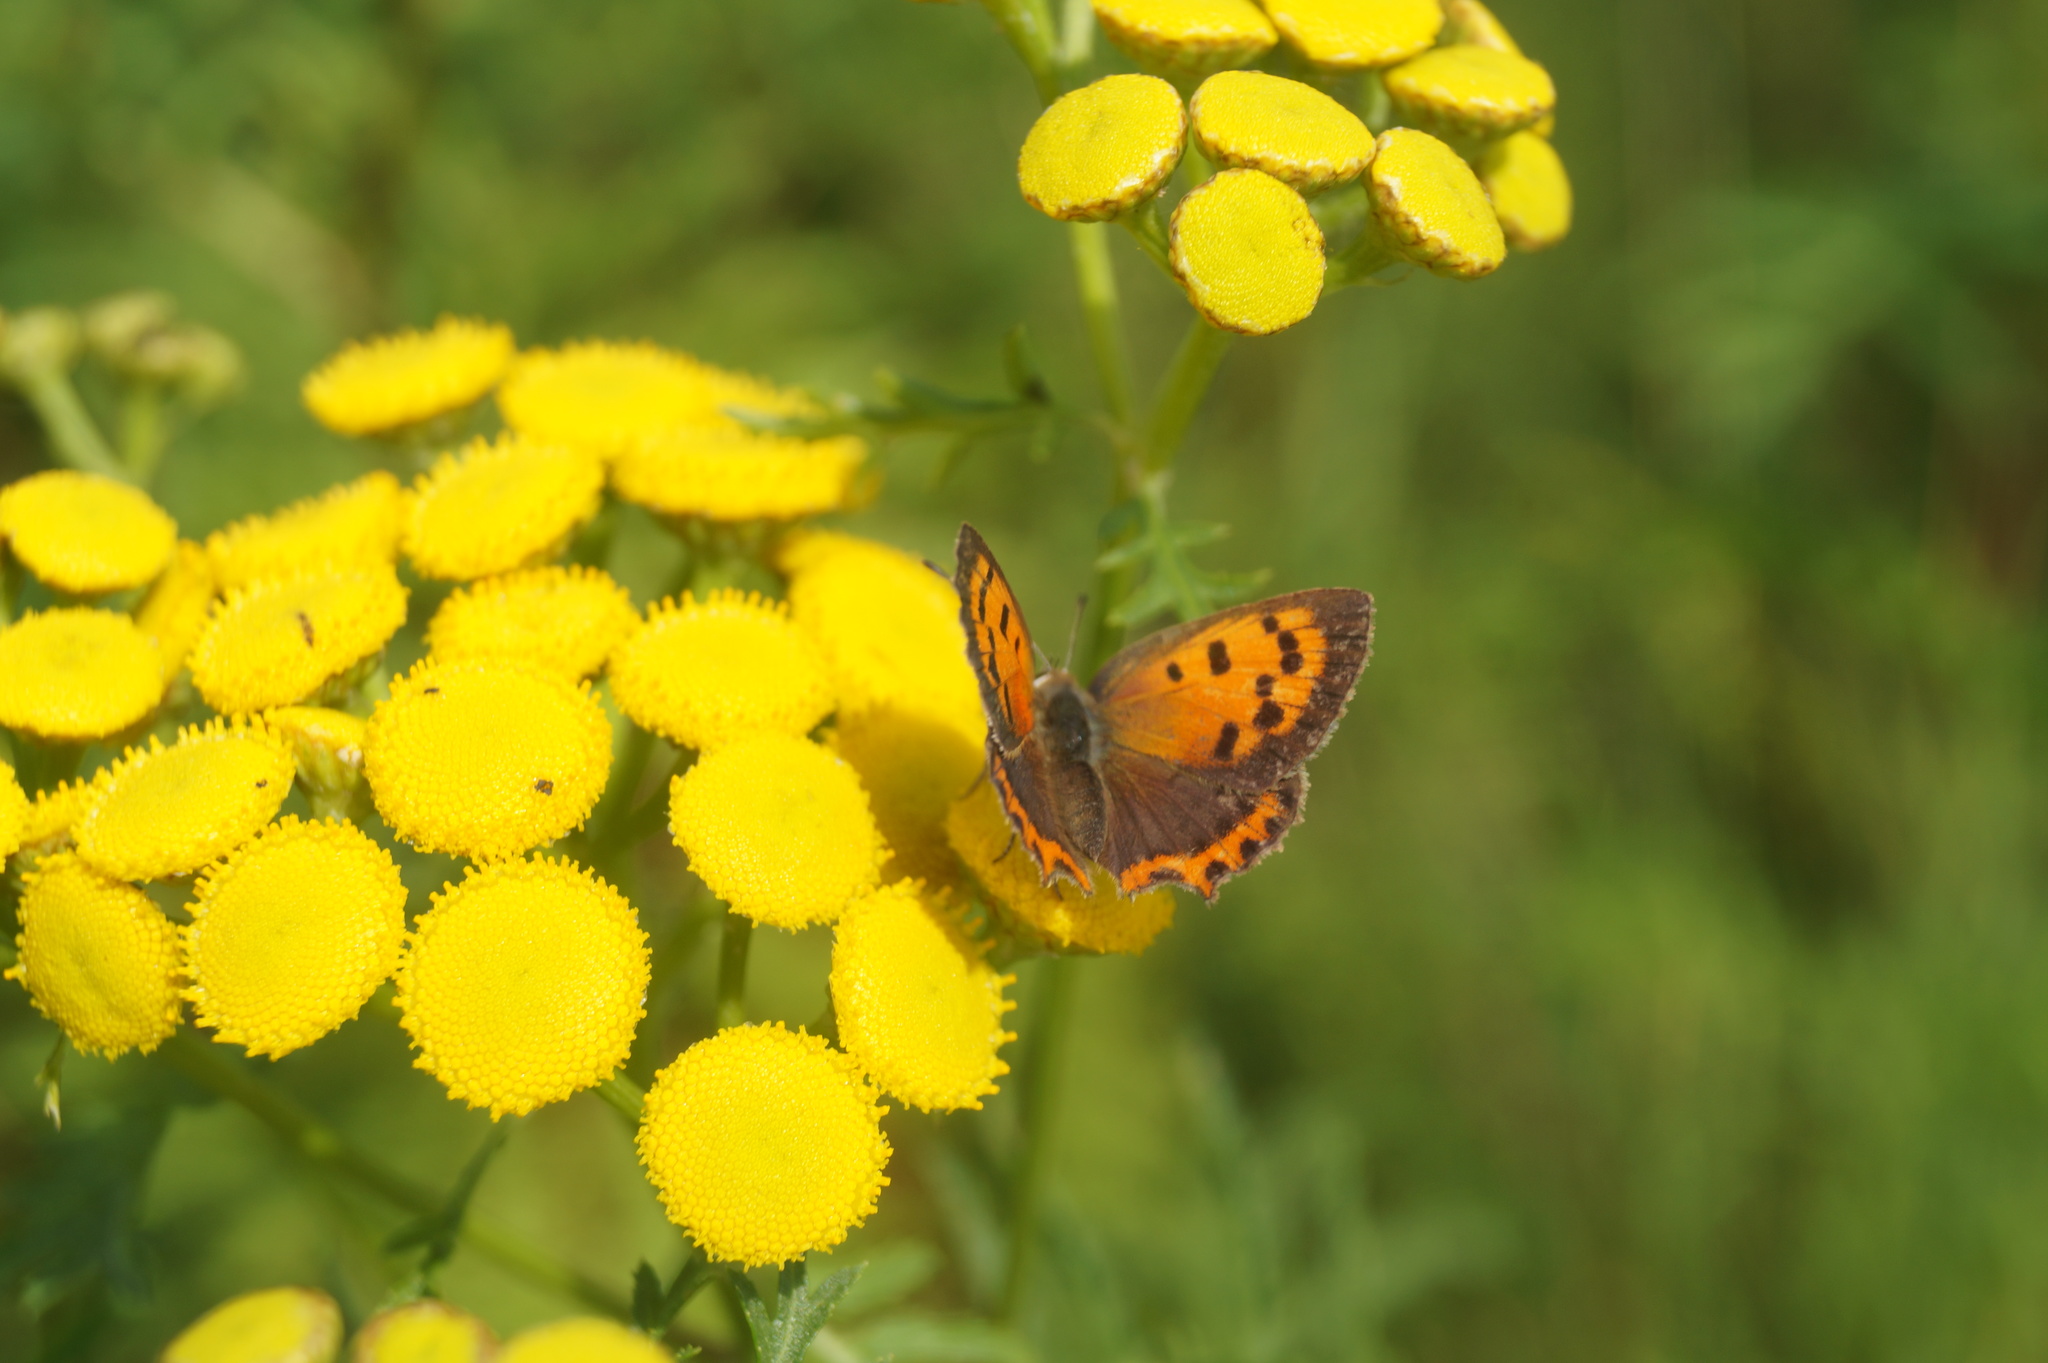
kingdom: Animalia
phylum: Arthropoda
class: Insecta
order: Lepidoptera
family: Lycaenidae
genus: Lycaena
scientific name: Lycaena phlaeas
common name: Small copper
